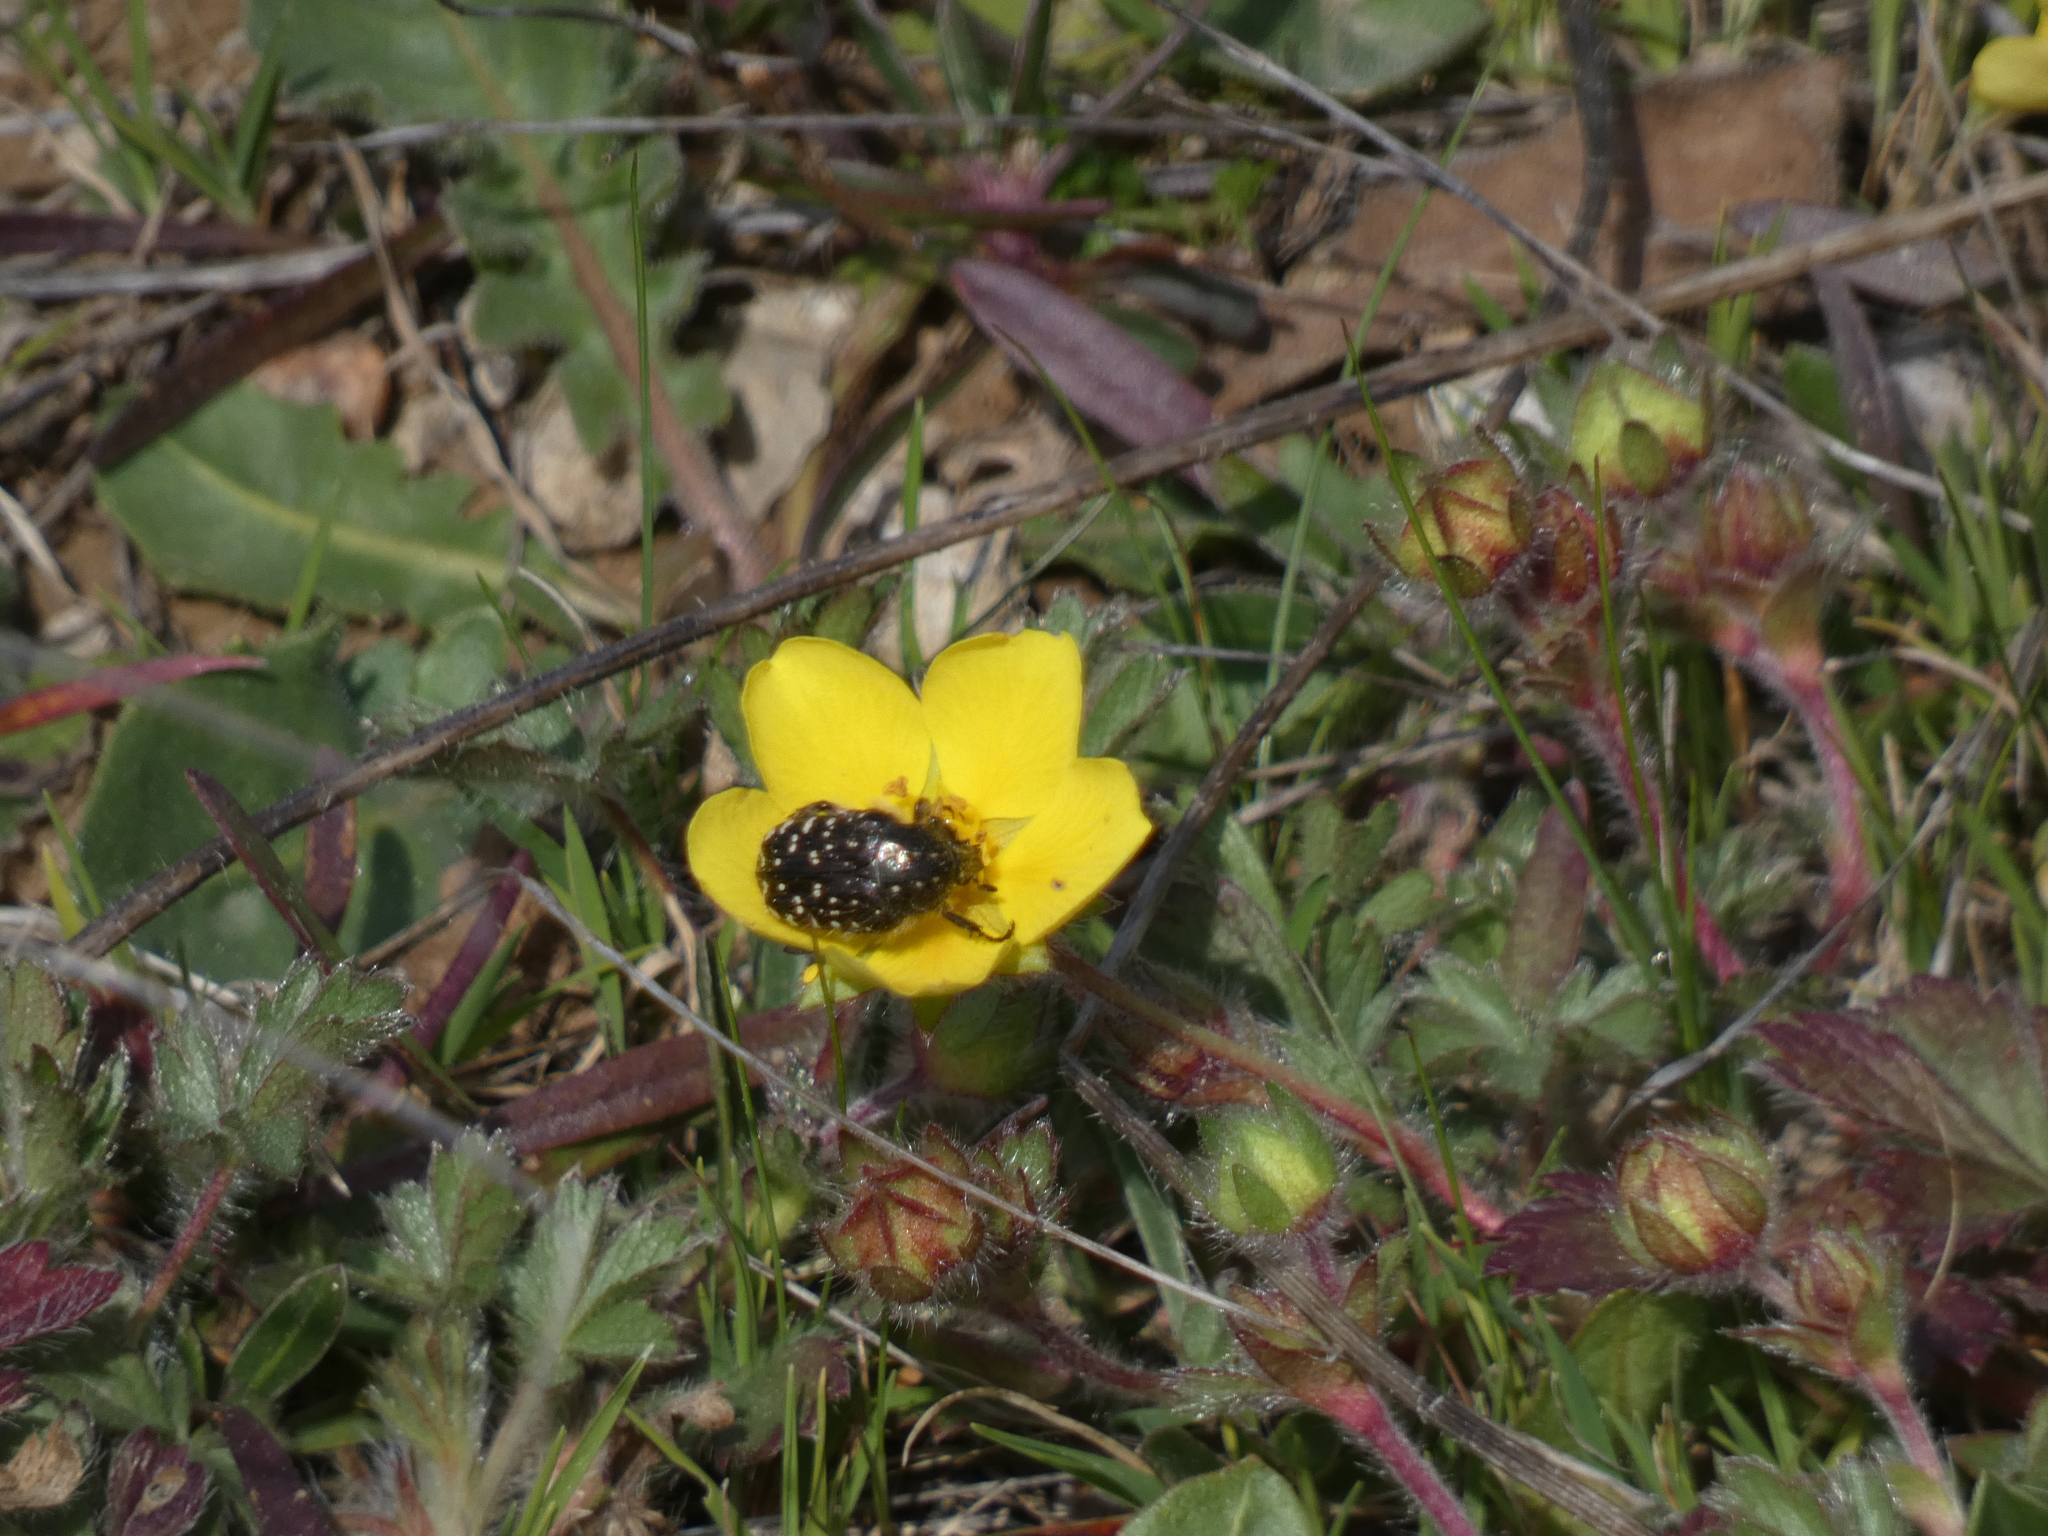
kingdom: Animalia
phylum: Arthropoda
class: Insecta
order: Coleoptera
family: Scarabaeidae
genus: Oxythyrea
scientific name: Oxythyrea funesta
